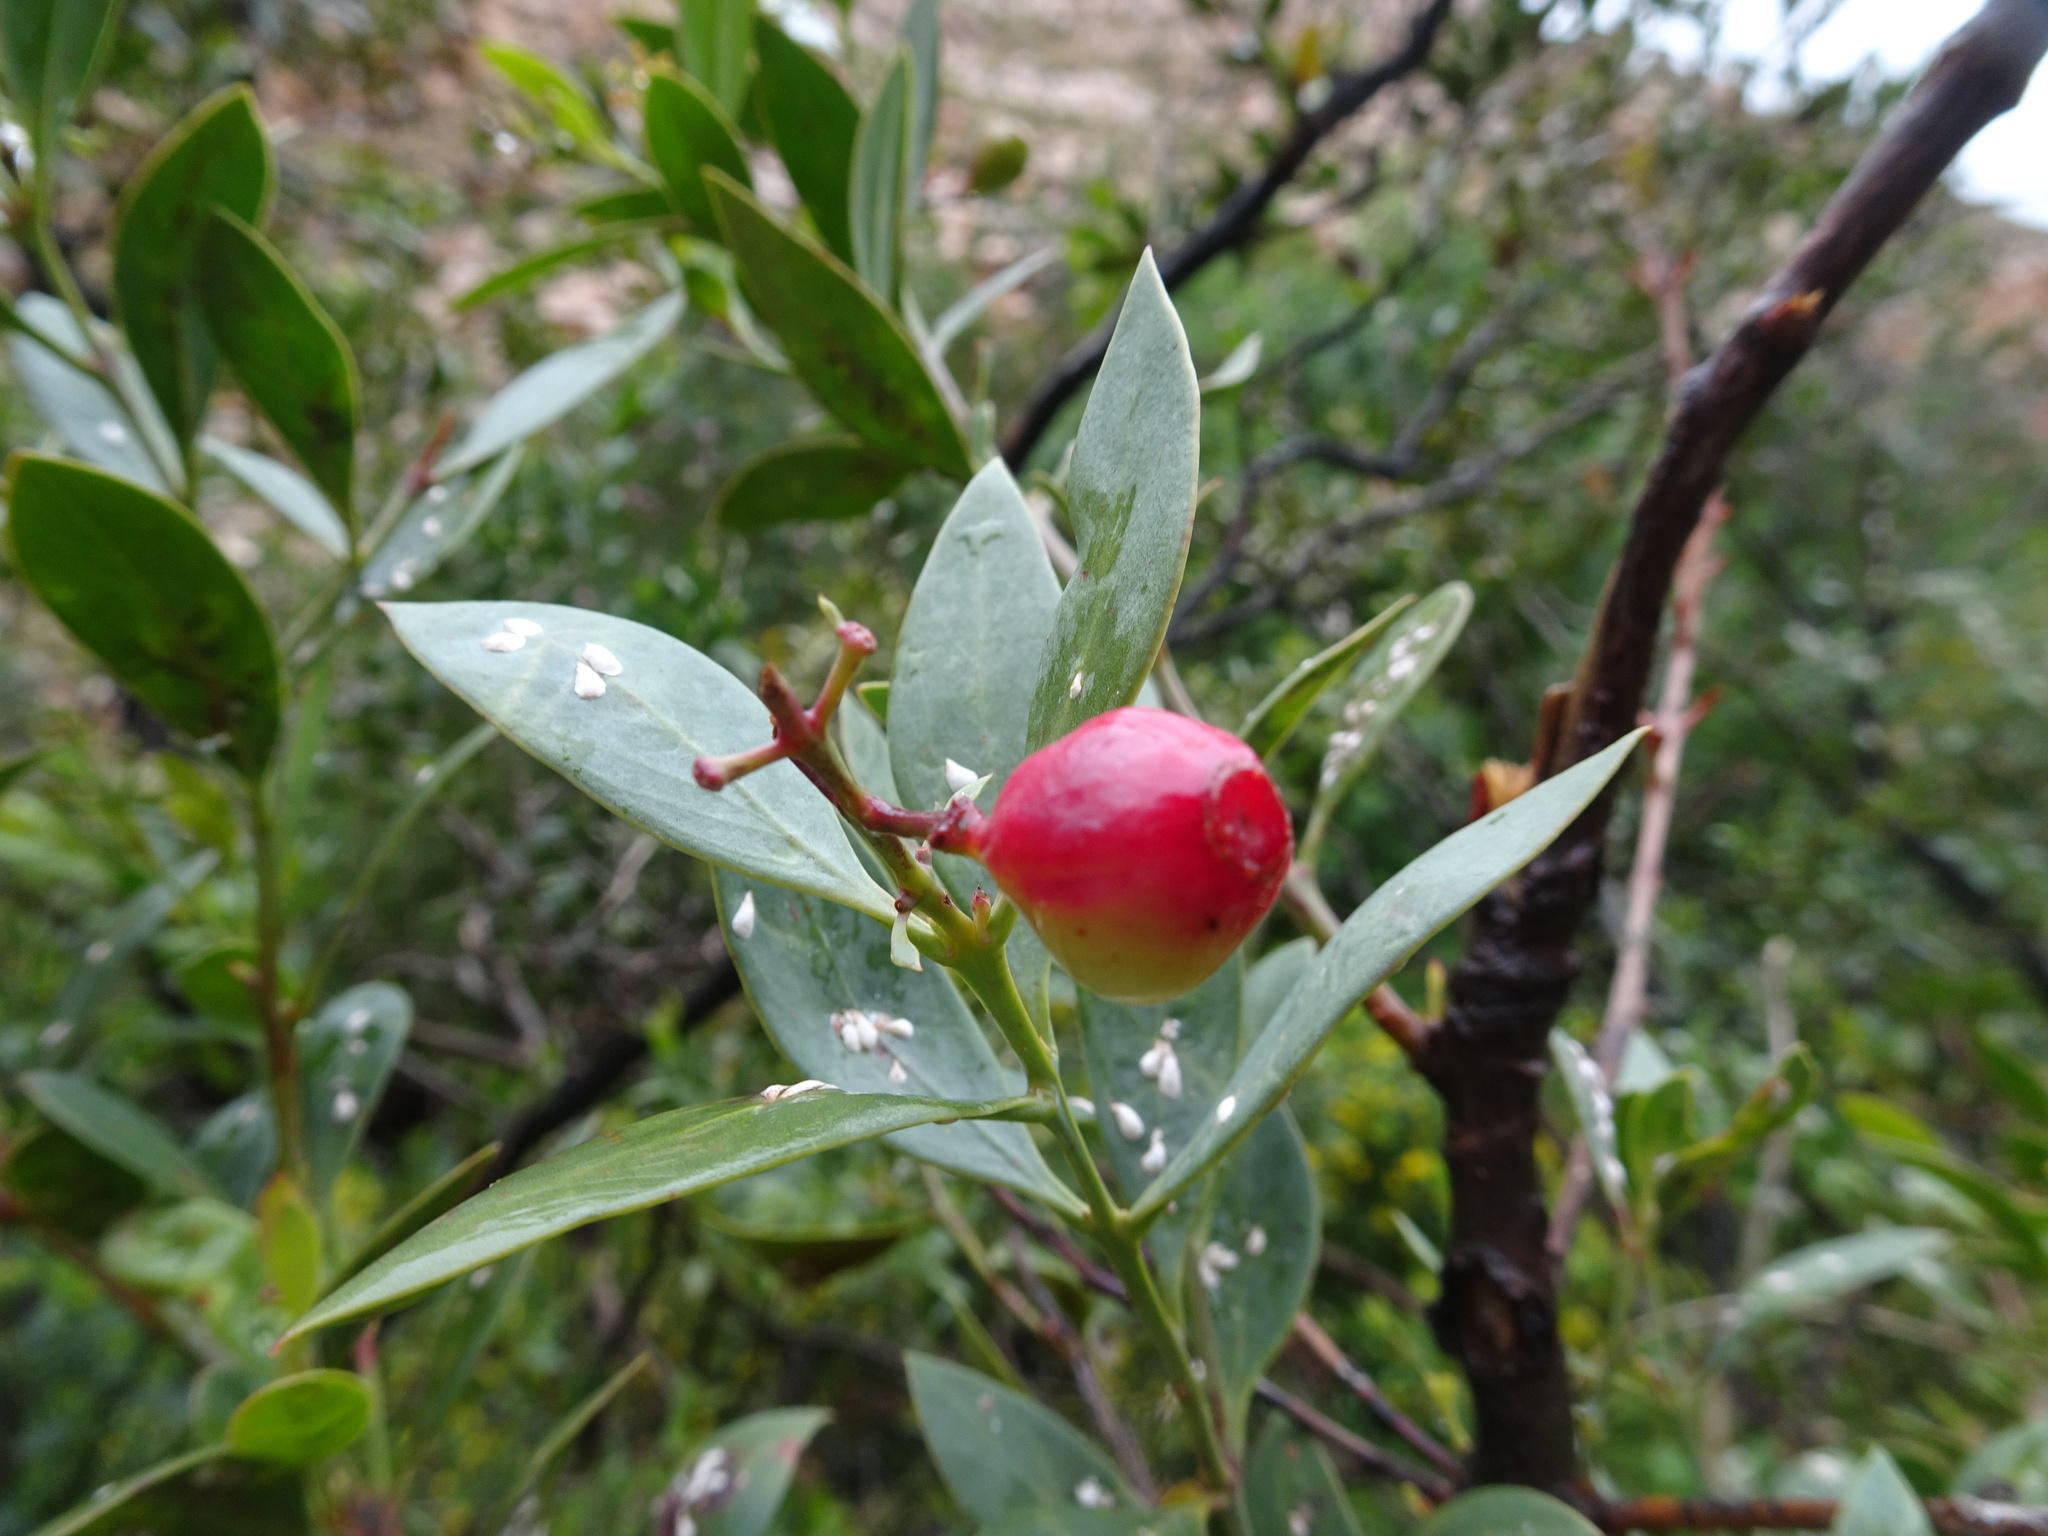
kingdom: Plantae
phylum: Tracheophyta
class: Magnoliopsida
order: Santalales
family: Santalaceae
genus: Osyris
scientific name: Osyris compressa
